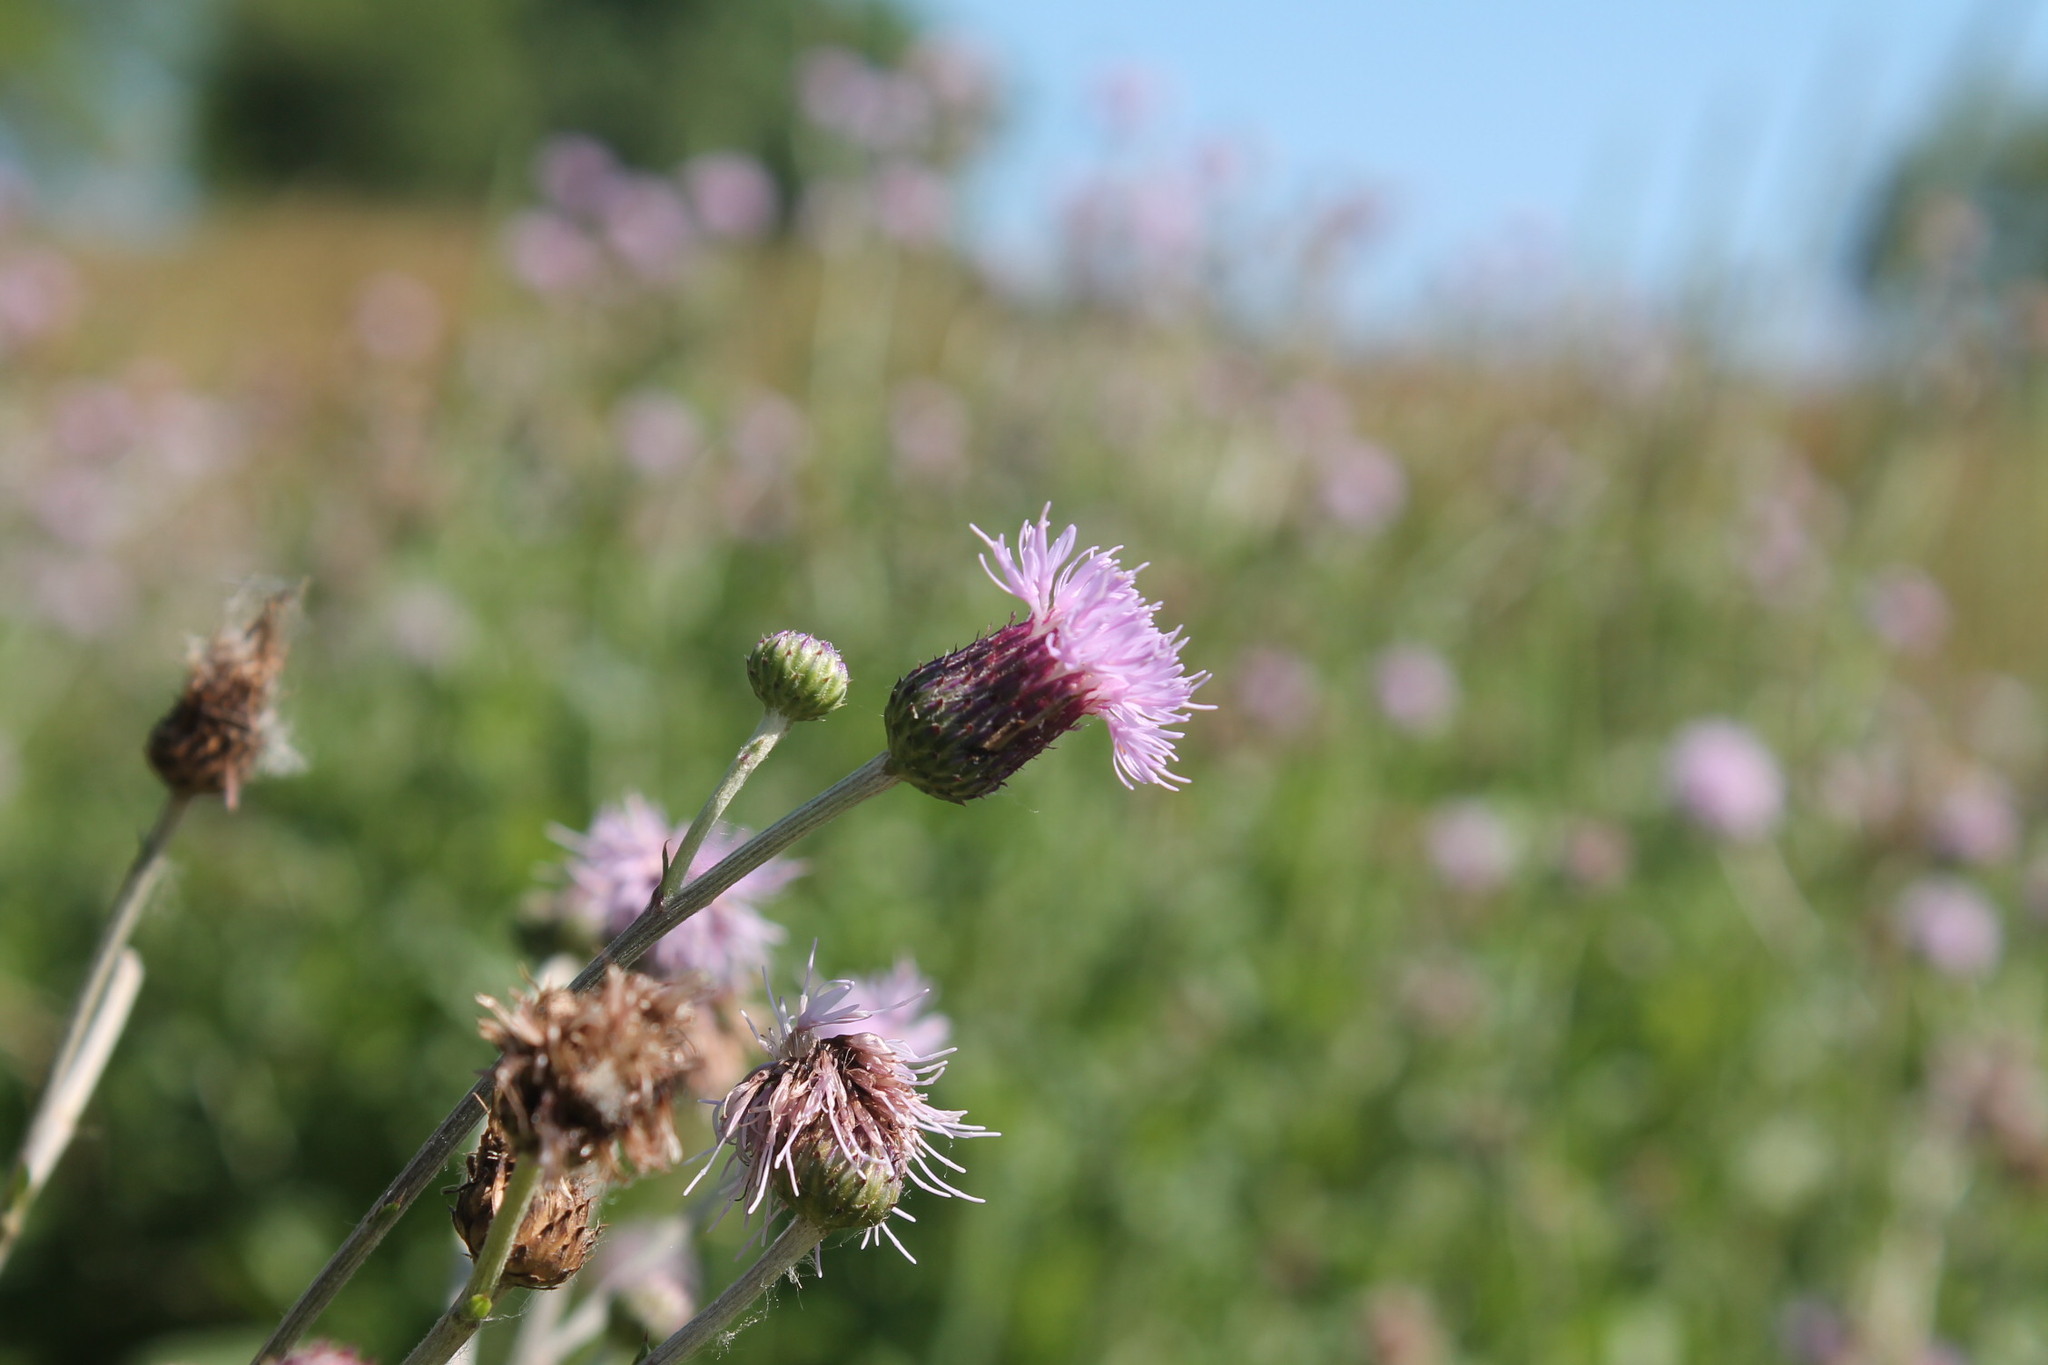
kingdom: Plantae
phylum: Tracheophyta
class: Magnoliopsida
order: Asterales
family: Asteraceae
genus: Cirsium
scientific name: Cirsium arvense
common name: Creeping thistle
